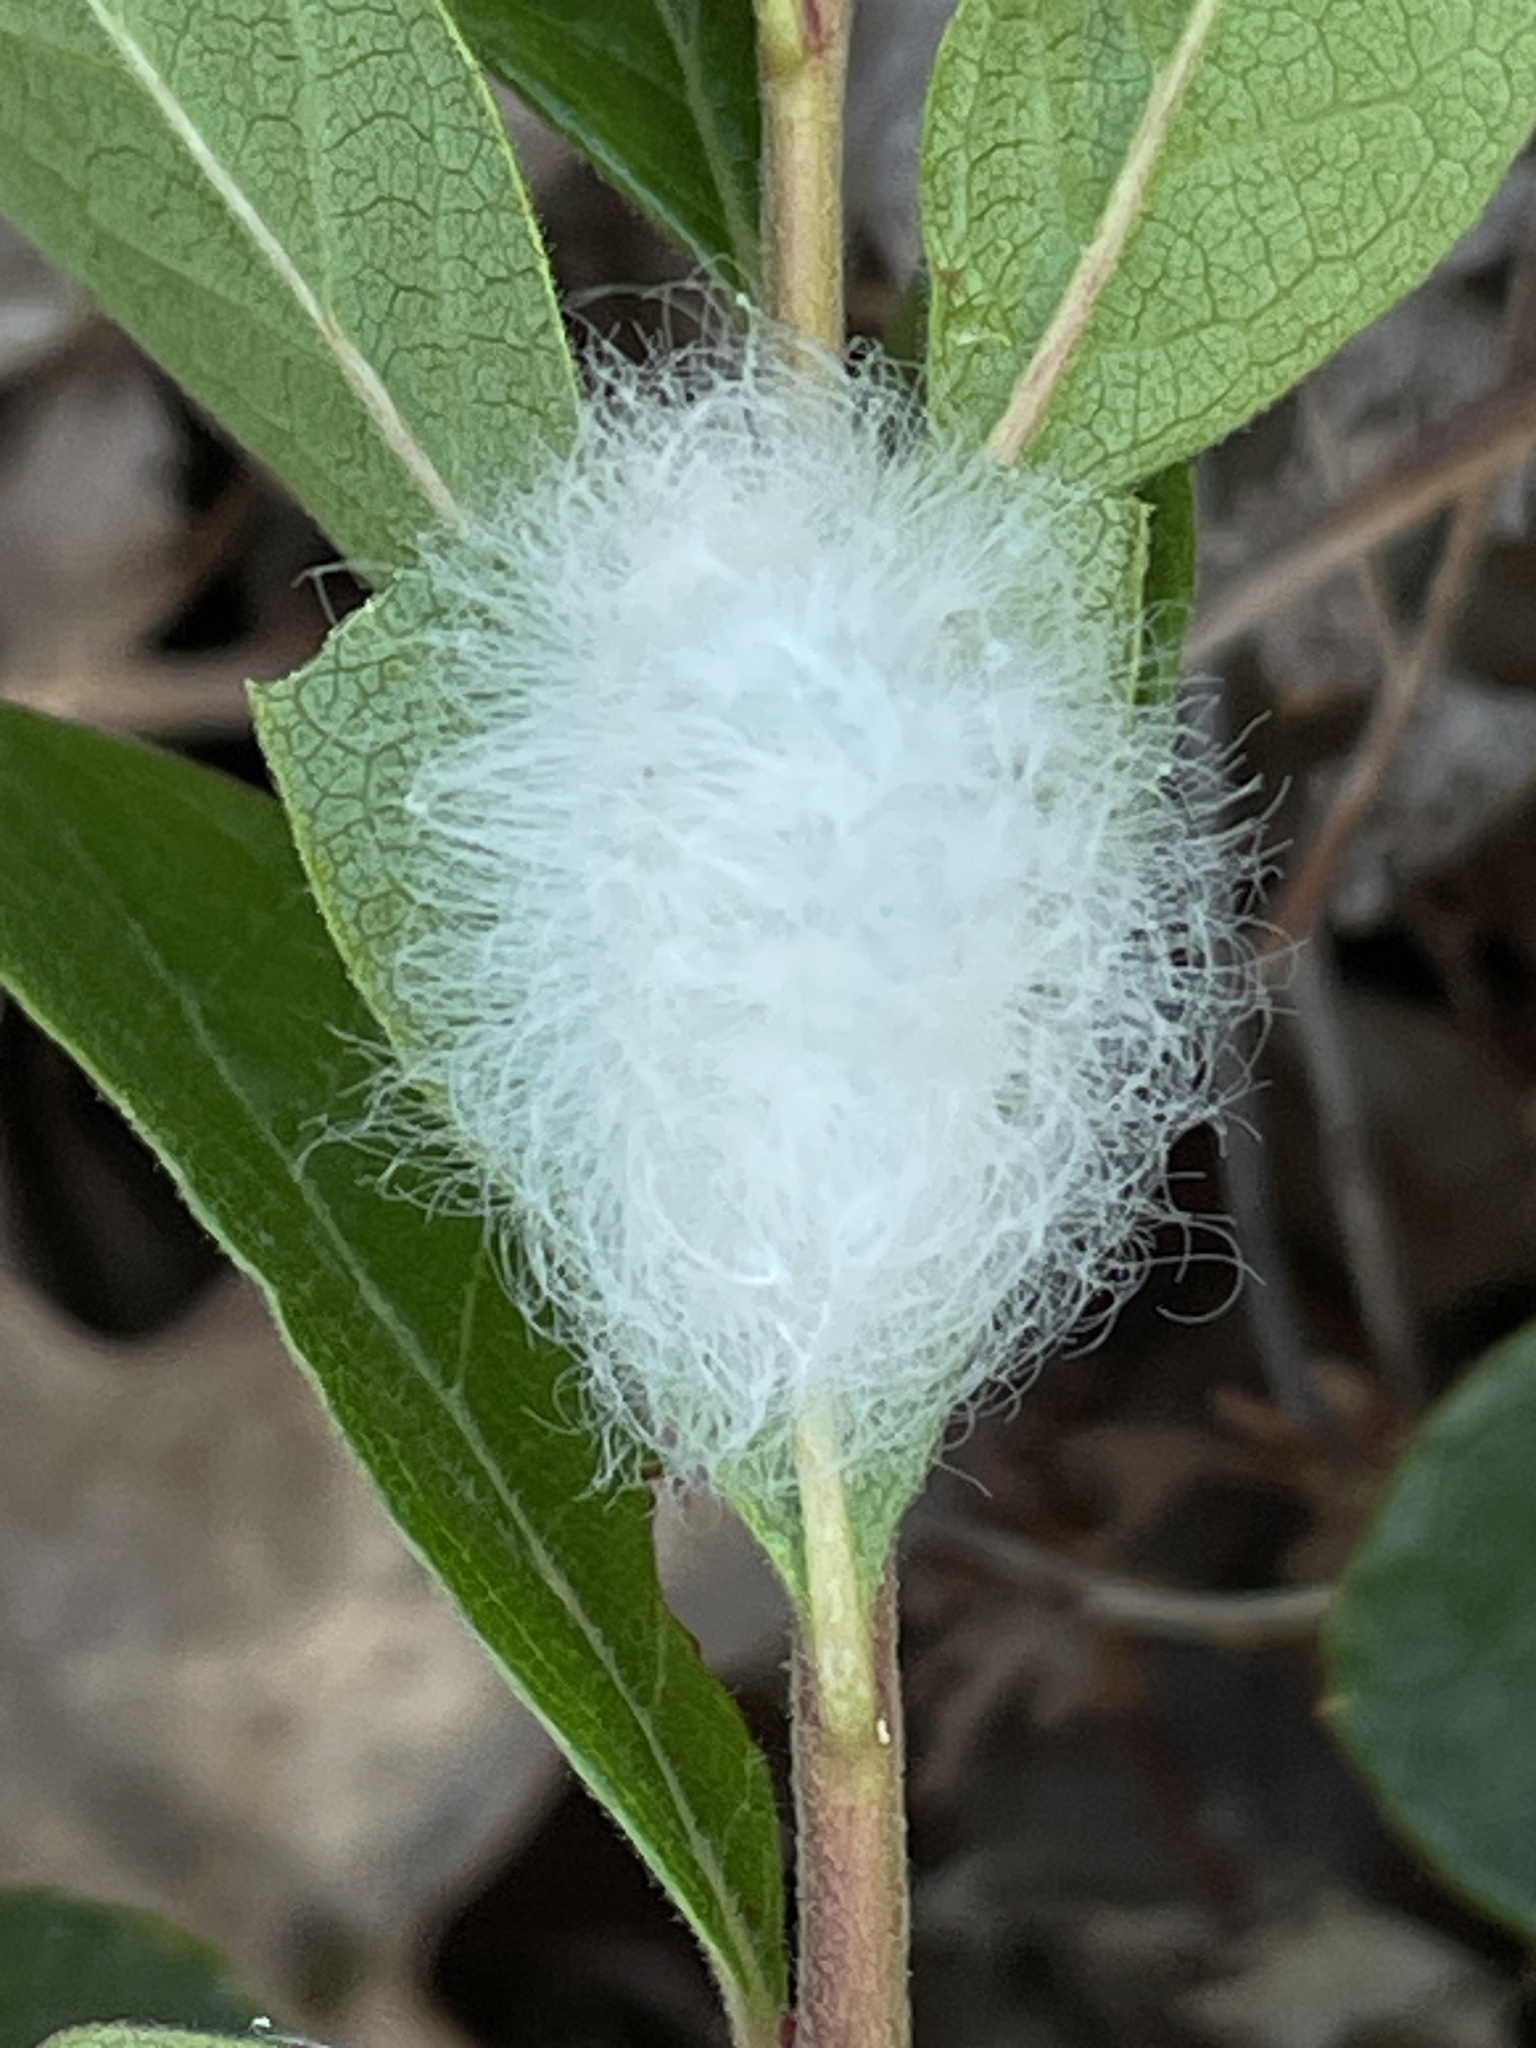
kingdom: Animalia
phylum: Arthropoda
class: Insecta
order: Lepidoptera
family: Megalopygidae
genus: Megalopyge
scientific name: Megalopyge crispata
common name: Black-waved flannel moth
